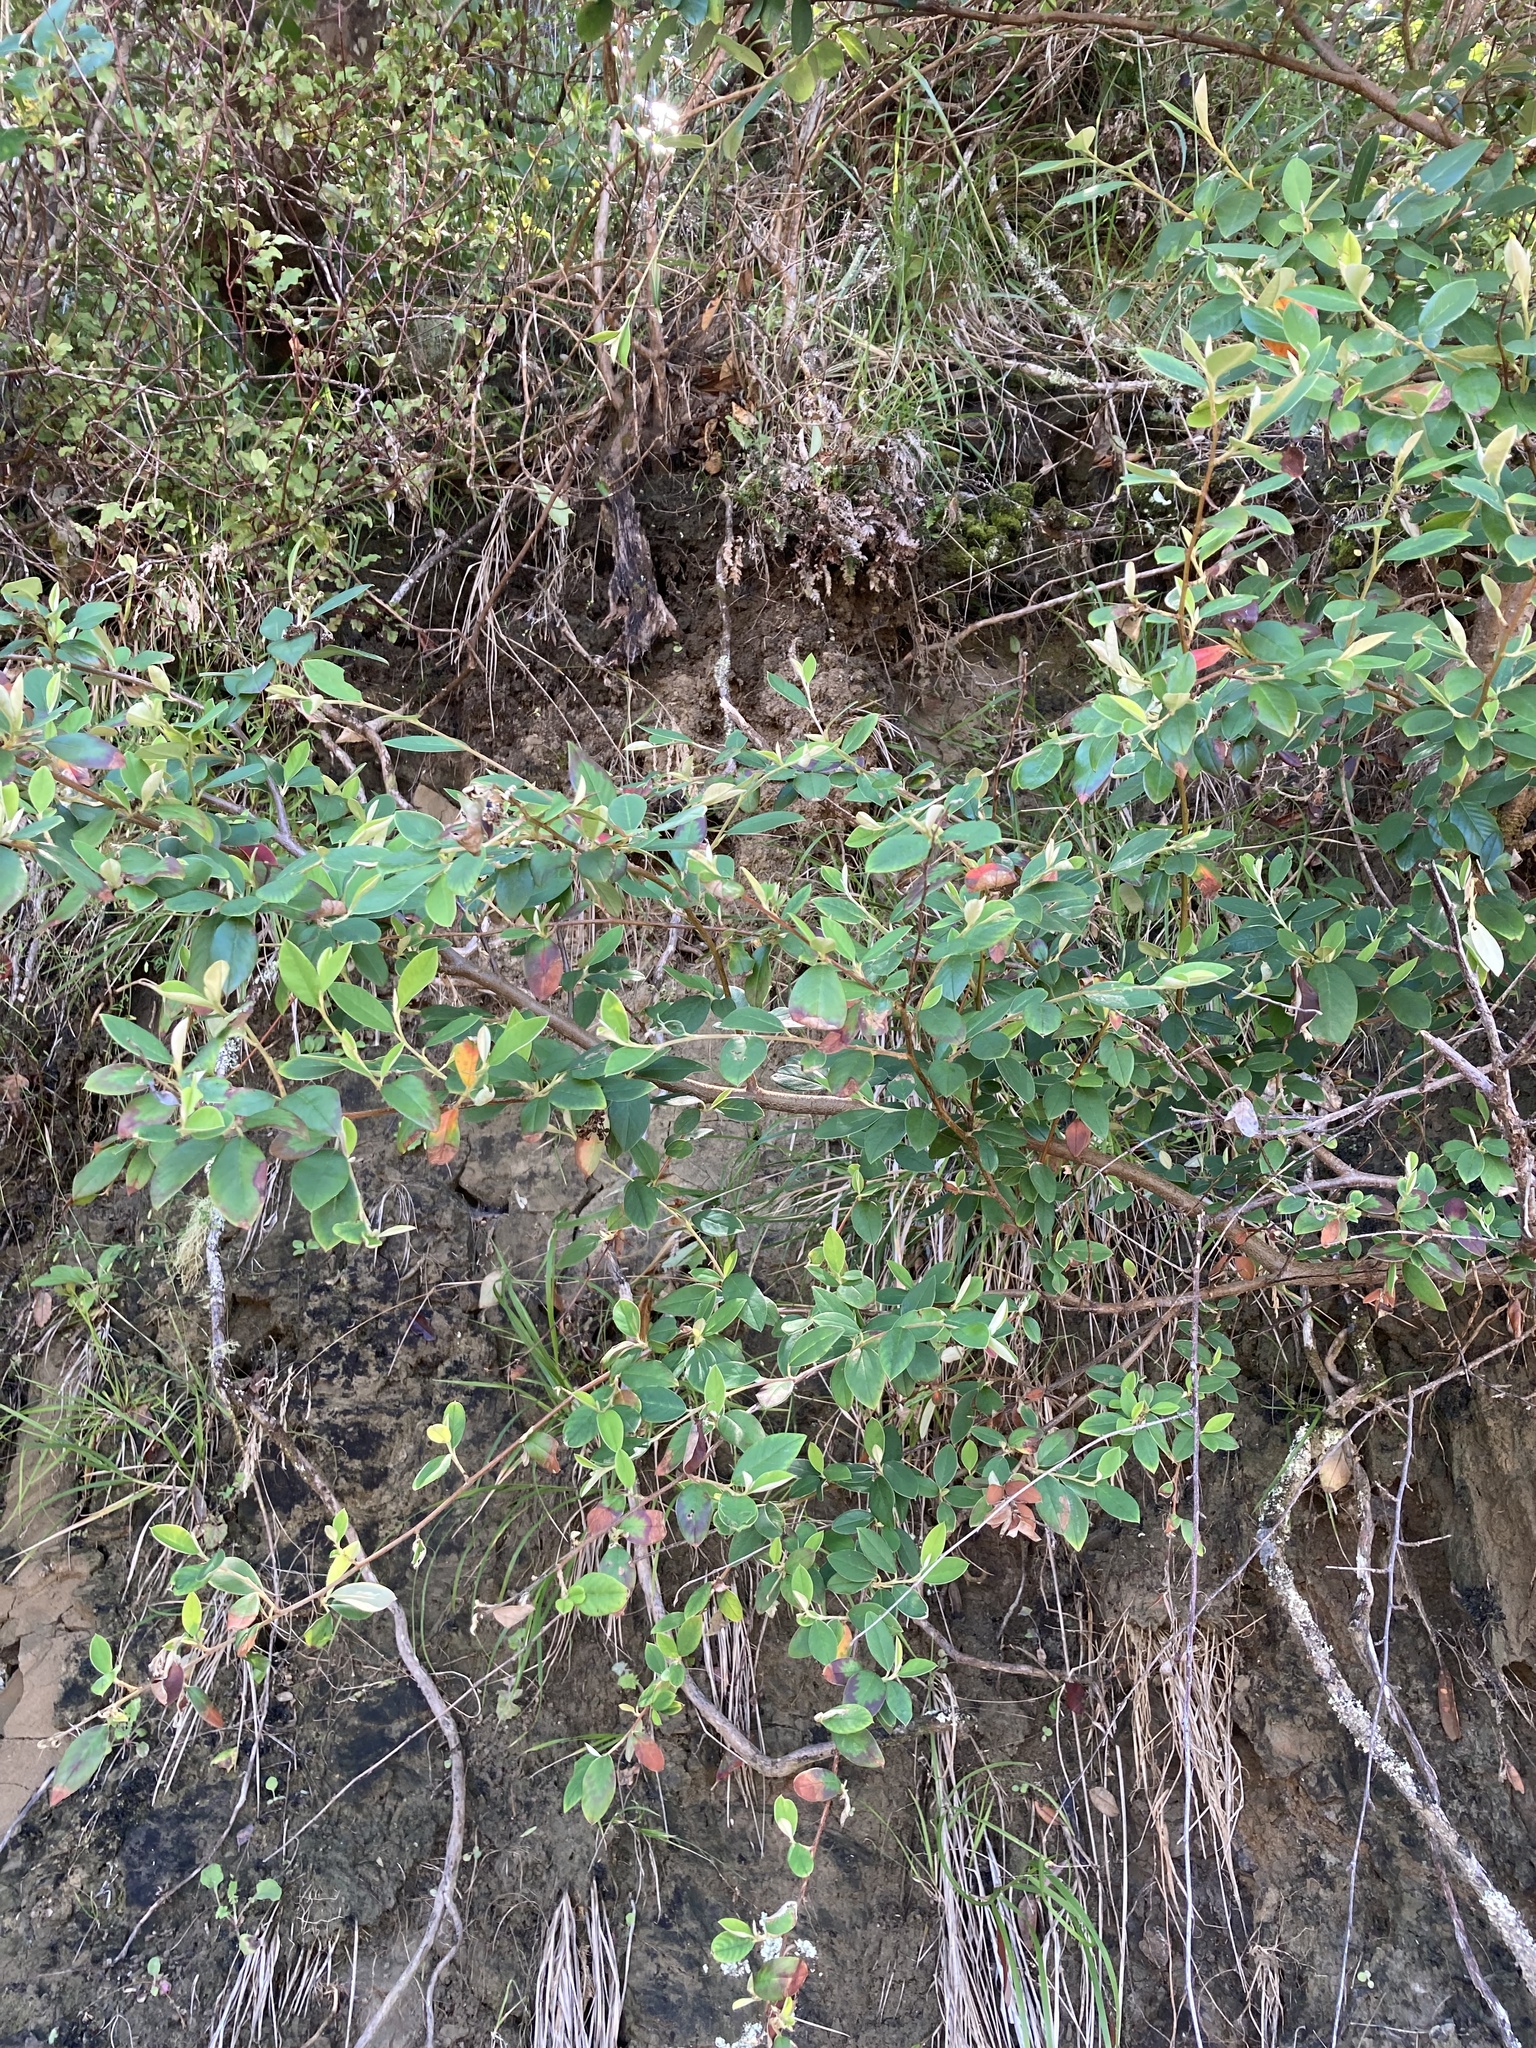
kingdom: Plantae
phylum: Tracheophyta
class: Magnoliopsida
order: Rosales
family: Rosaceae
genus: Cotoneaster
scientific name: Cotoneaster glaucophyllus
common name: Glaucous cotoneaster
